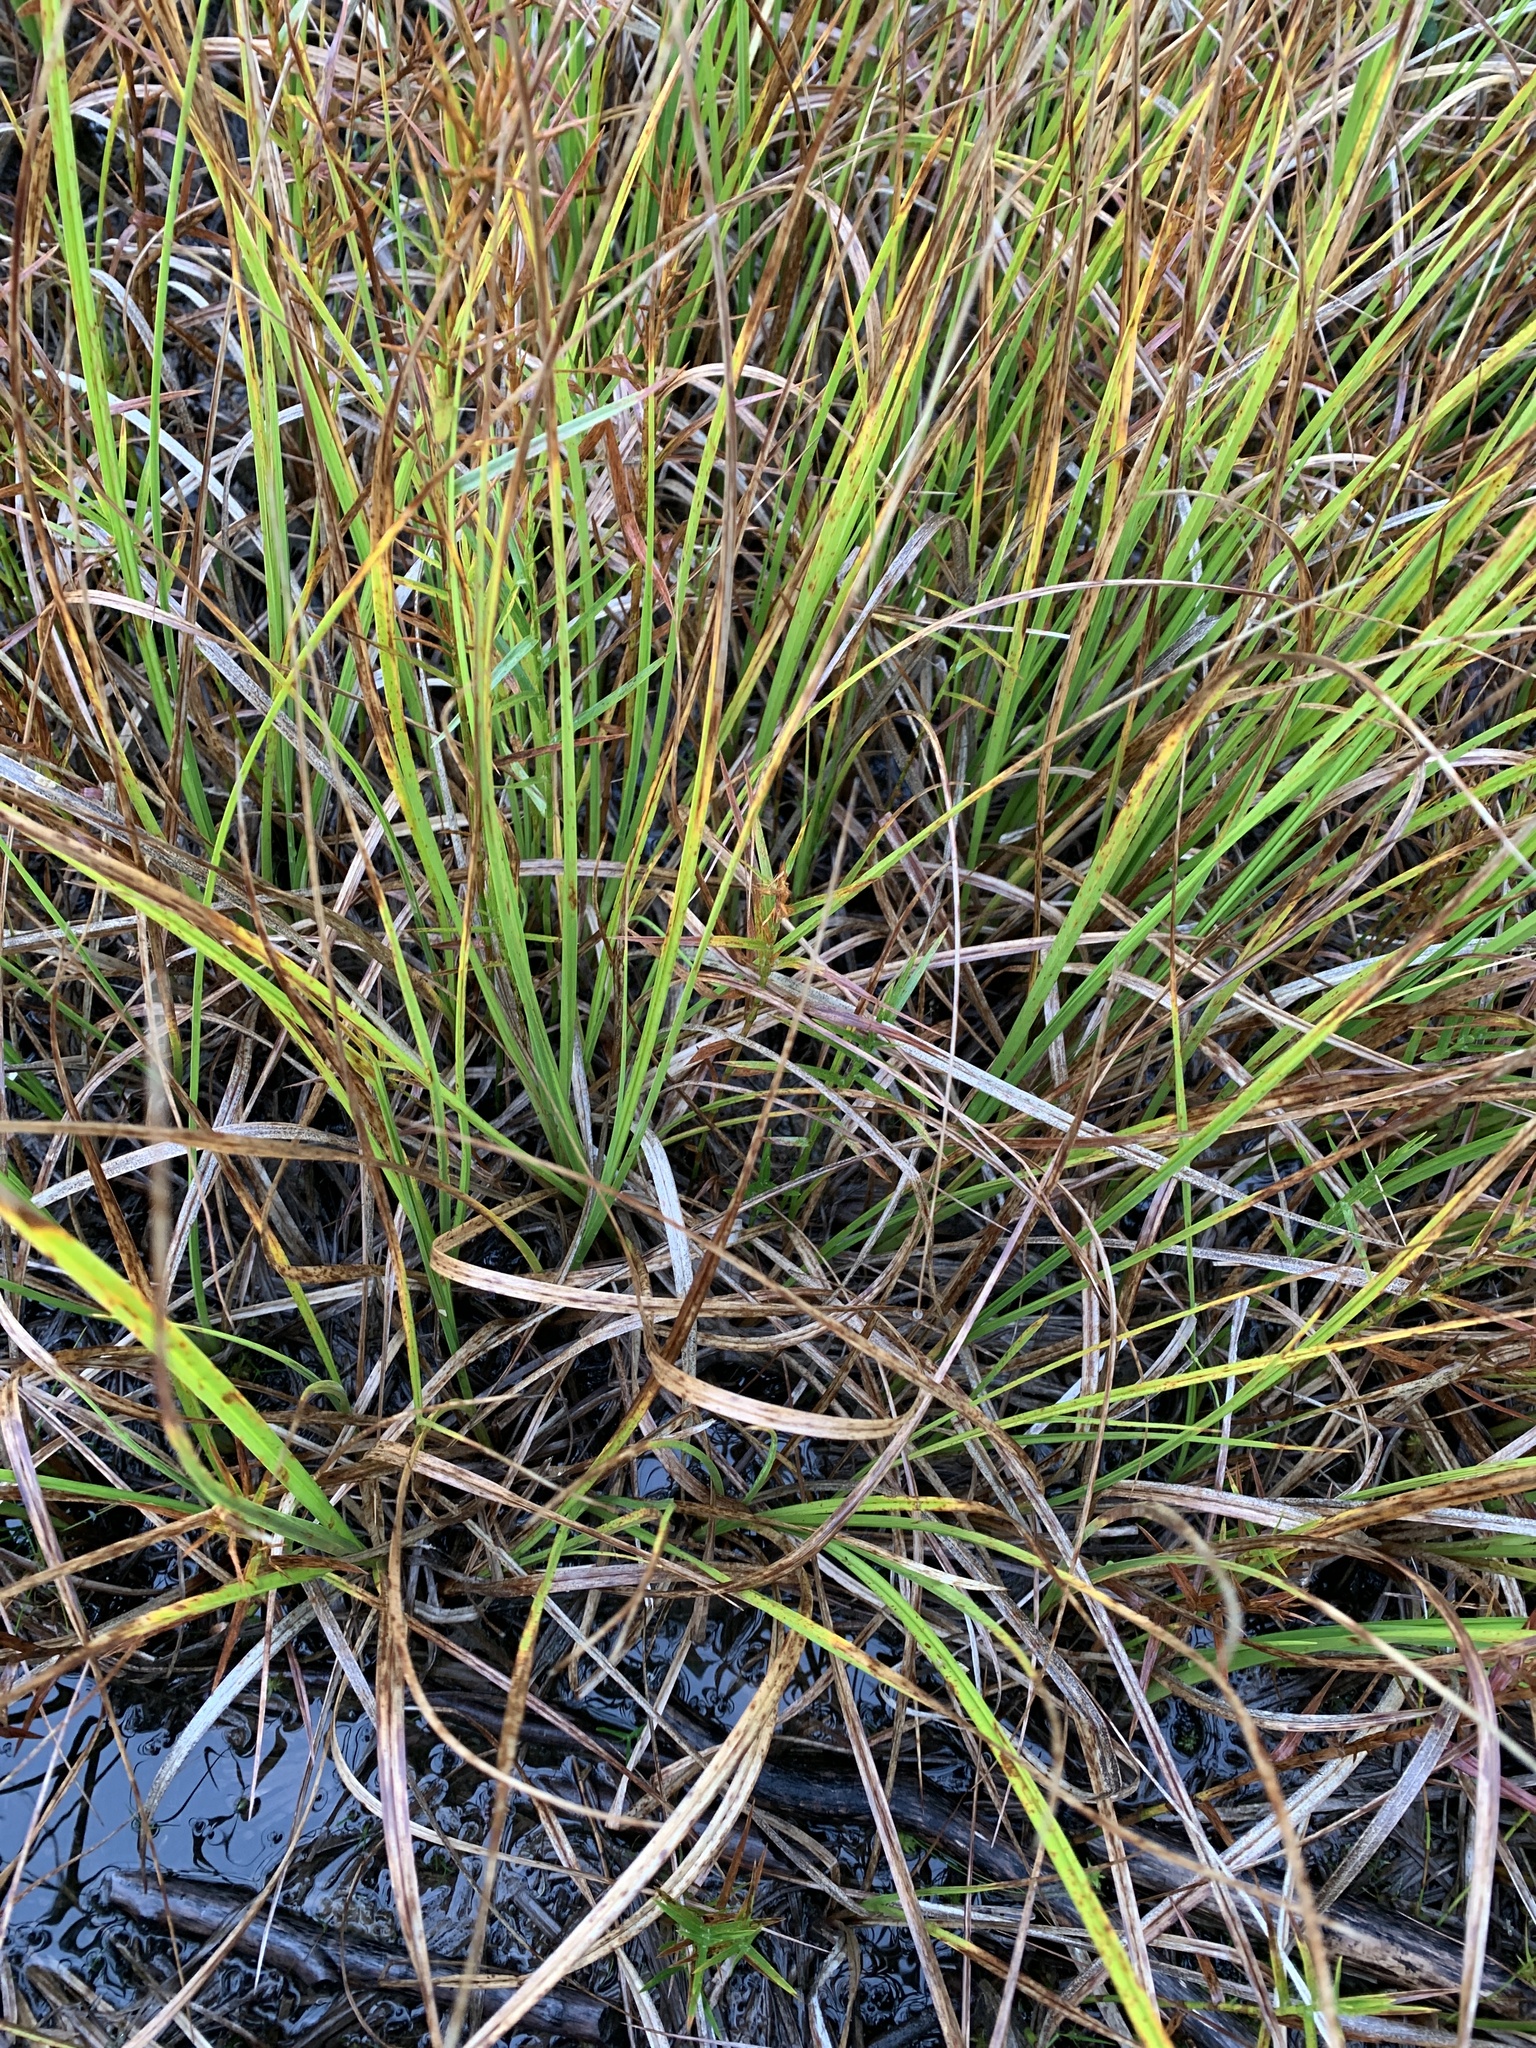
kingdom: Plantae
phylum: Tracheophyta
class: Liliopsida
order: Poales
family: Cyperaceae
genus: Carex
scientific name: Carex utriculata
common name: Beaked sedge
